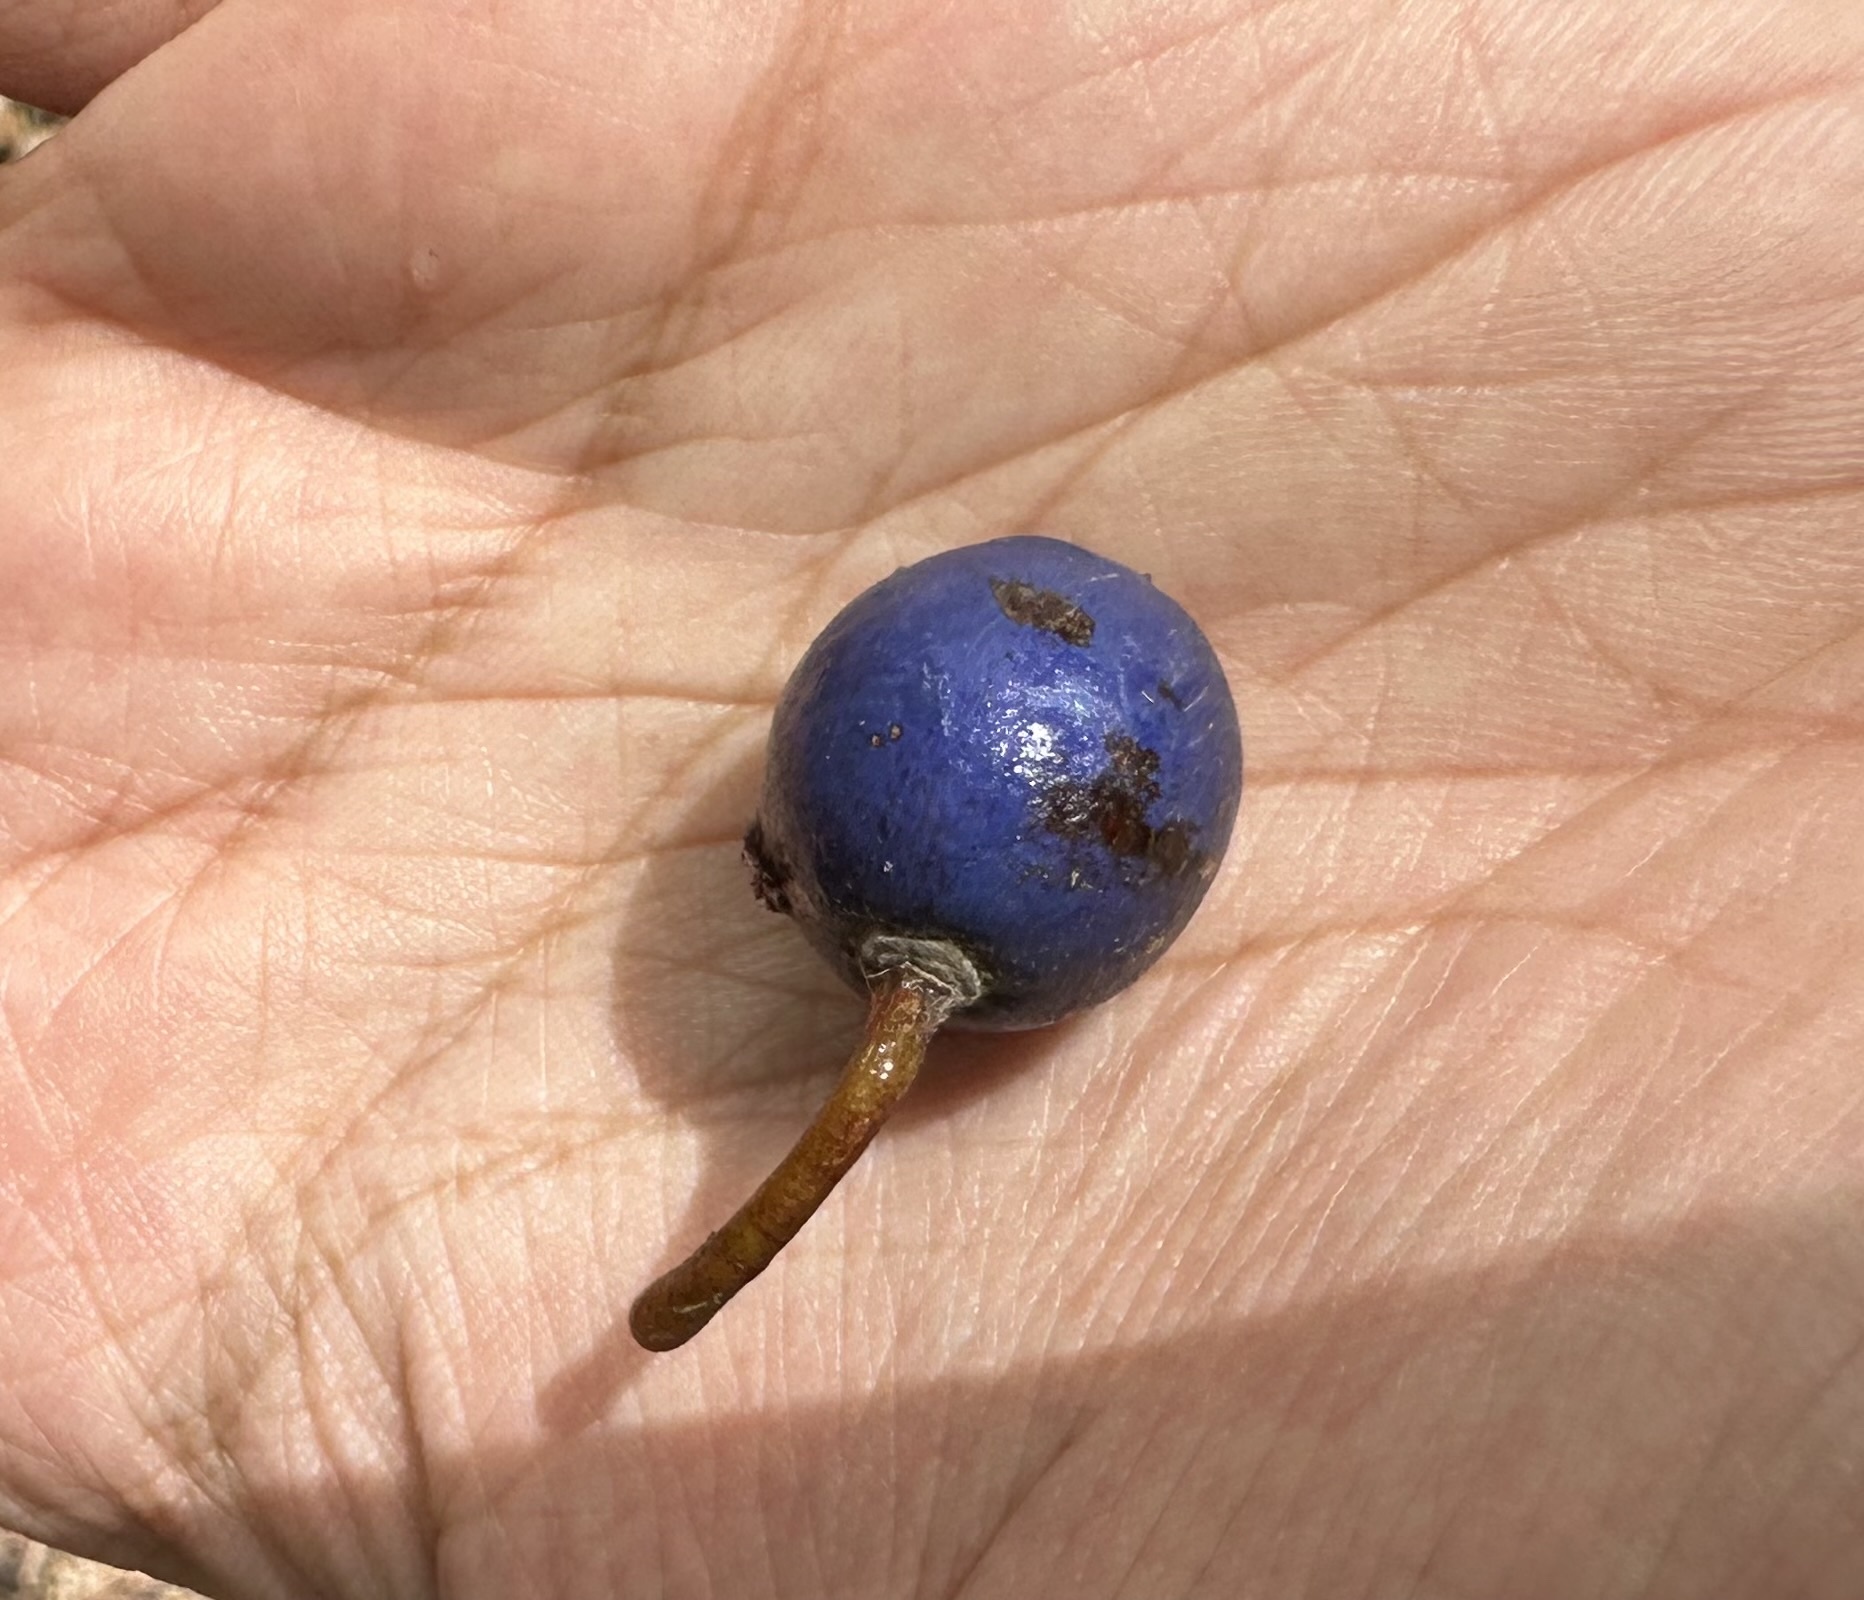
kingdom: Plantae
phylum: Tracheophyta
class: Magnoliopsida
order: Oxalidales
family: Elaeocarpaceae
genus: Elaeocarpus
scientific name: Elaeocarpus angustifolius
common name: Blue marble tree
